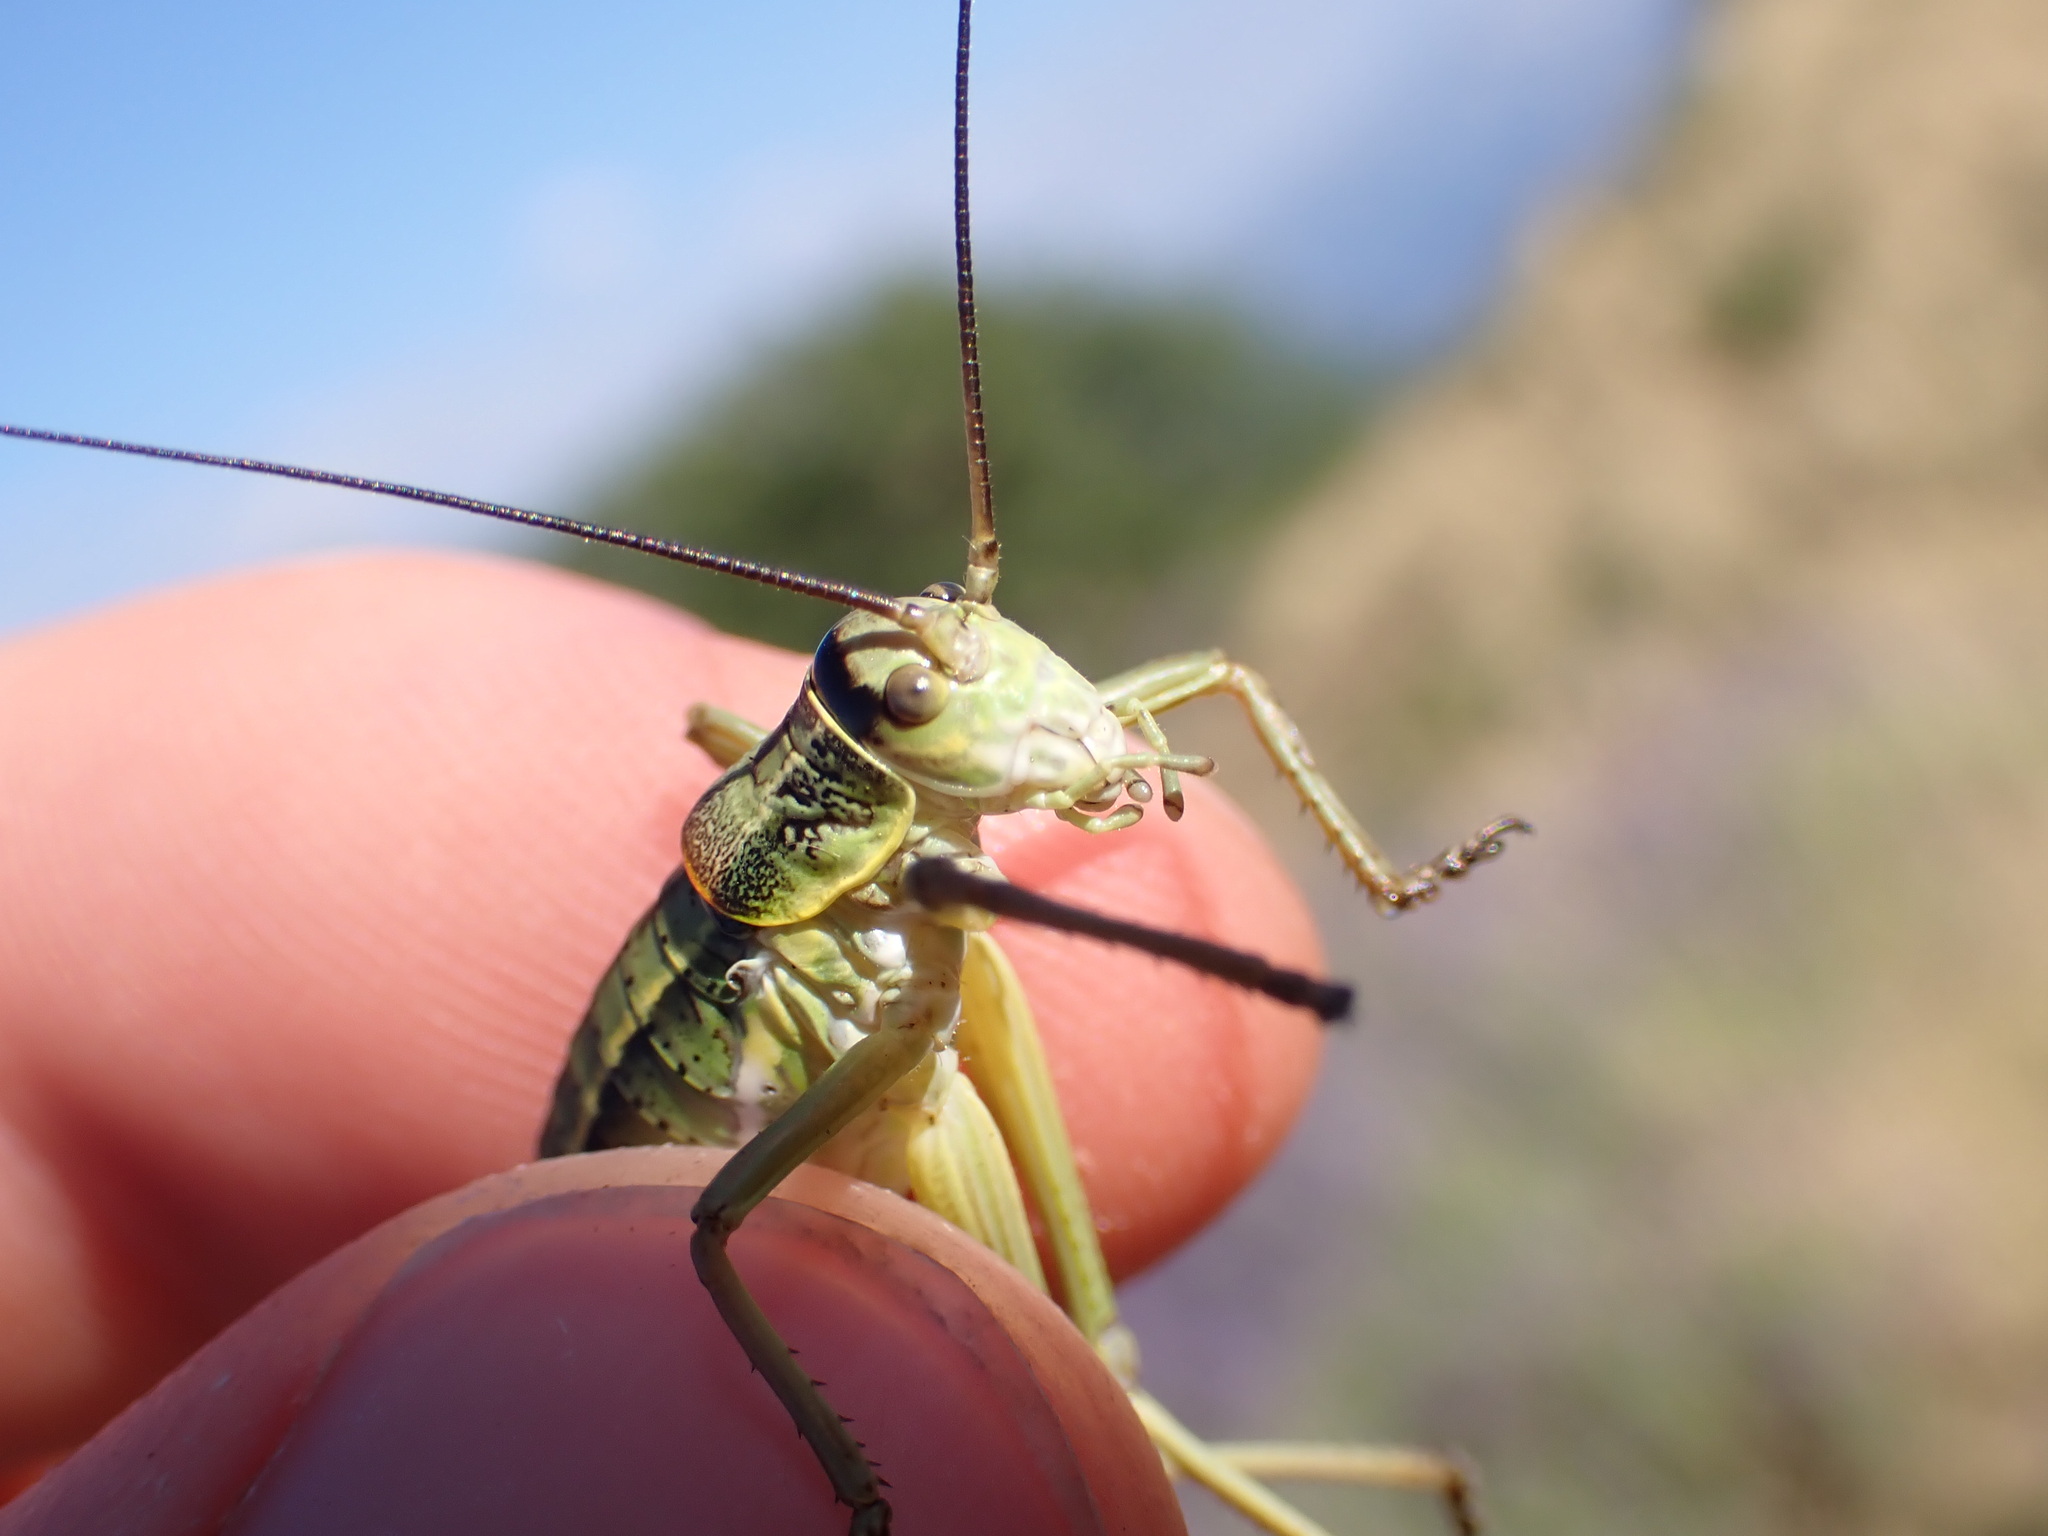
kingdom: Animalia
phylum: Arthropoda
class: Insecta
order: Orthoptera
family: Tettigoniidae
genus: Ephippiger
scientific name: Ephippiger terrestris
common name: Alpine saddle-backed bush-cricket
